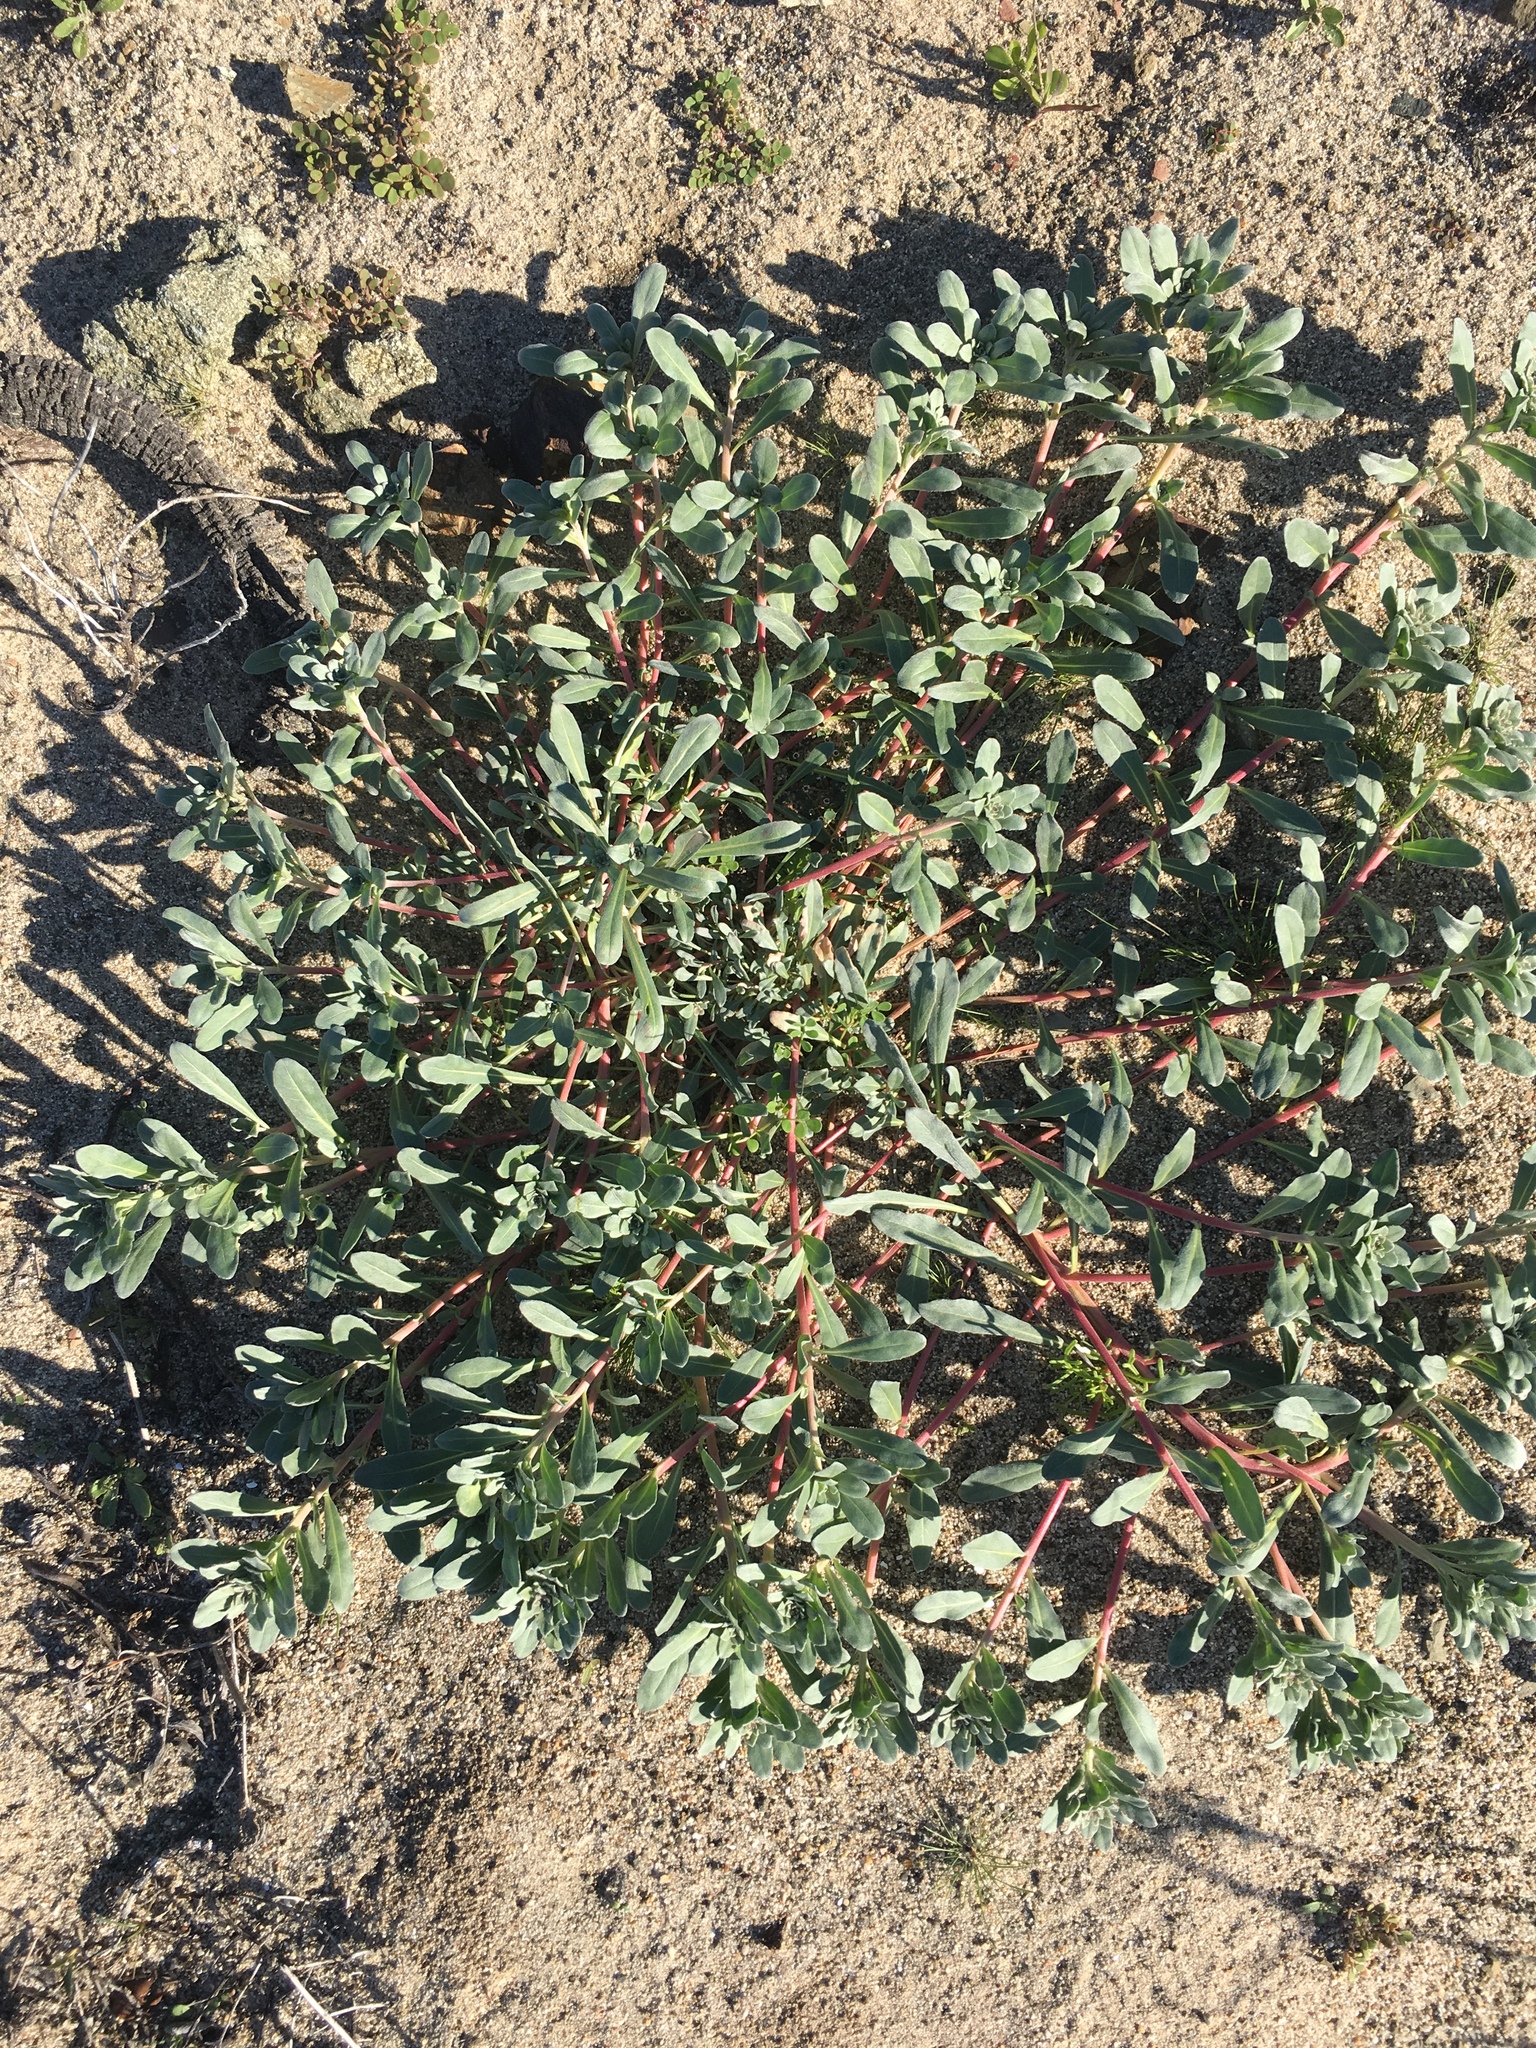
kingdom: Plantae
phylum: Tracheophyta
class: Magnoliopsida
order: Myrtales
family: Onagraceae
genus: Camissoniopsis
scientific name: Camissoniopsis cheiranthifolia
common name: Beach suncup
